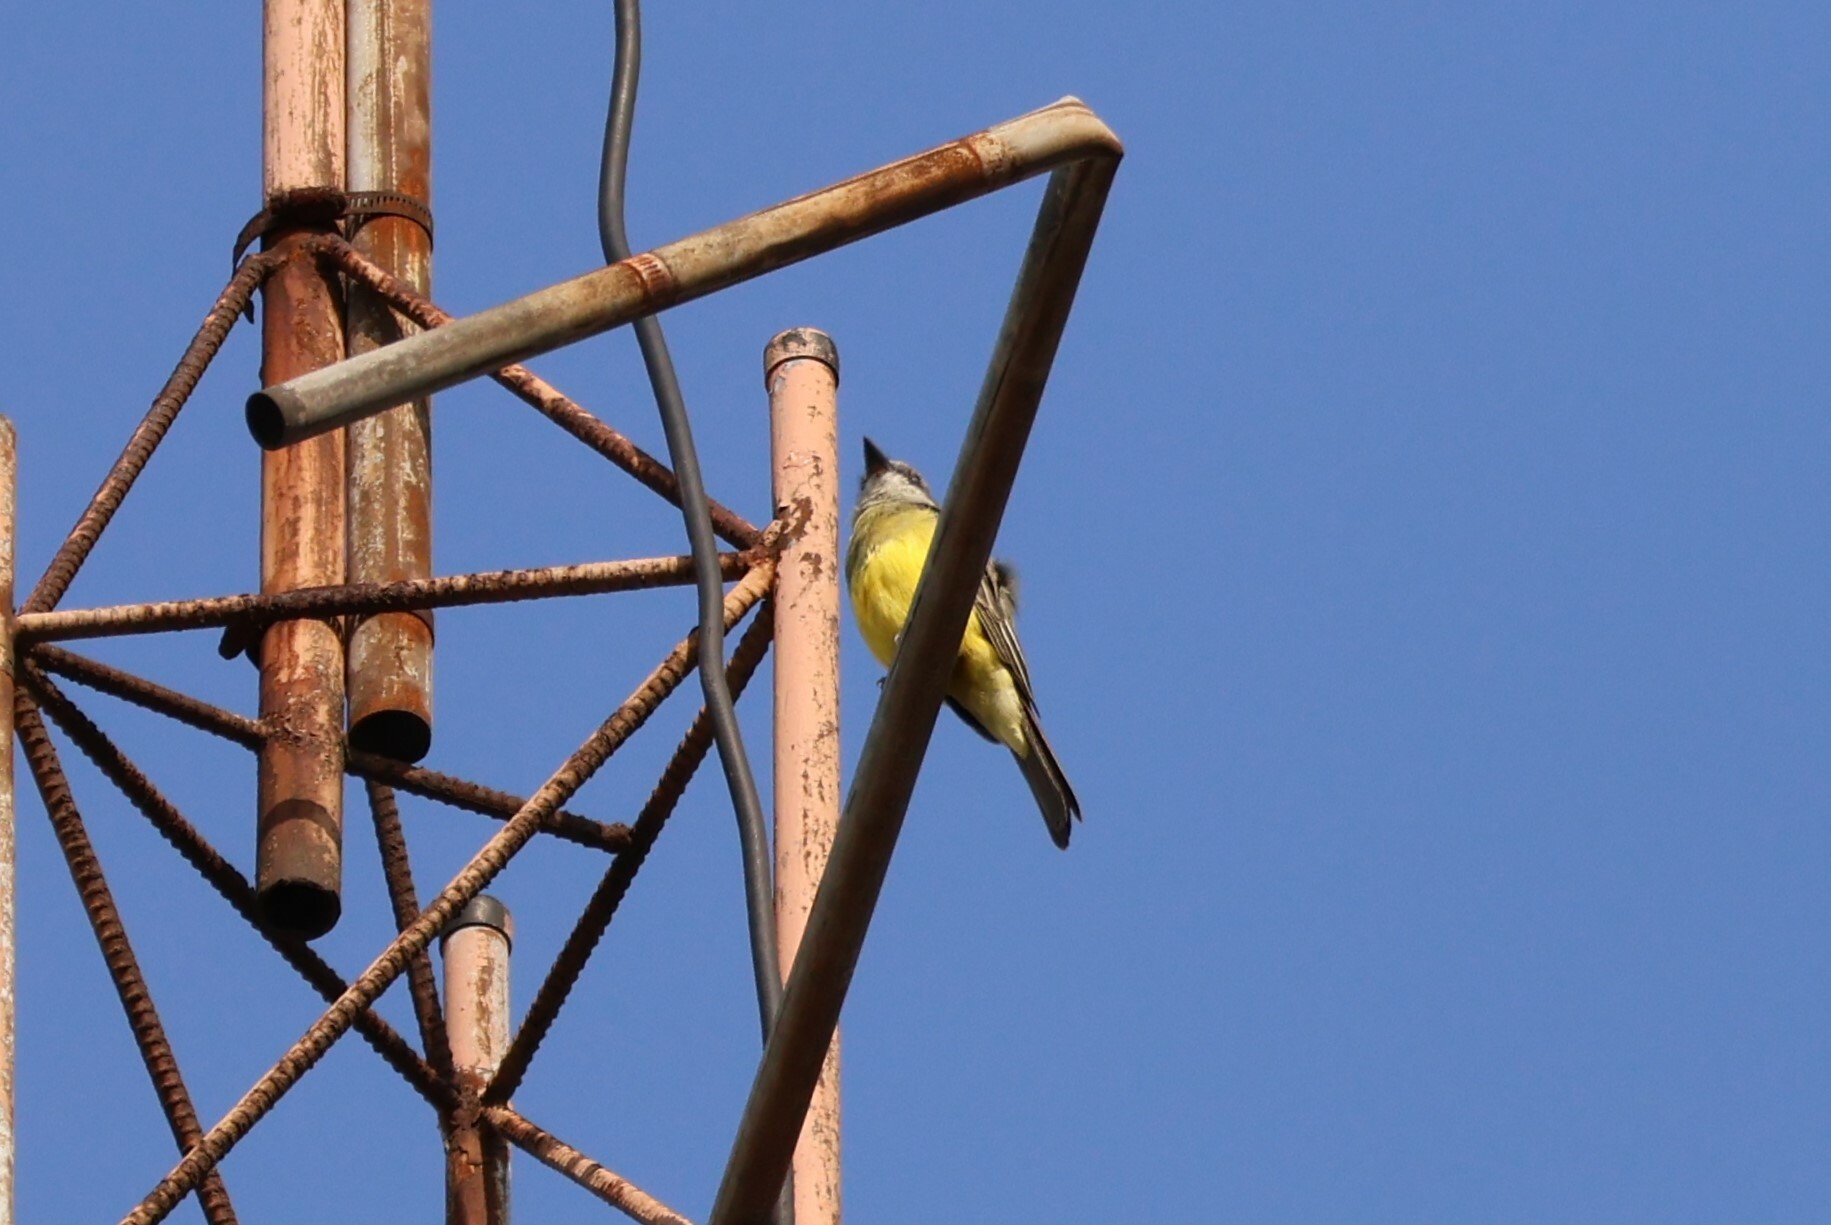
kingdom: Animalia
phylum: Chordata
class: Aves
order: Passeriformes
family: Tyrannidae
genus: Tyrannus
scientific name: Tyrannus melancholicus
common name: Tropical kingbird
